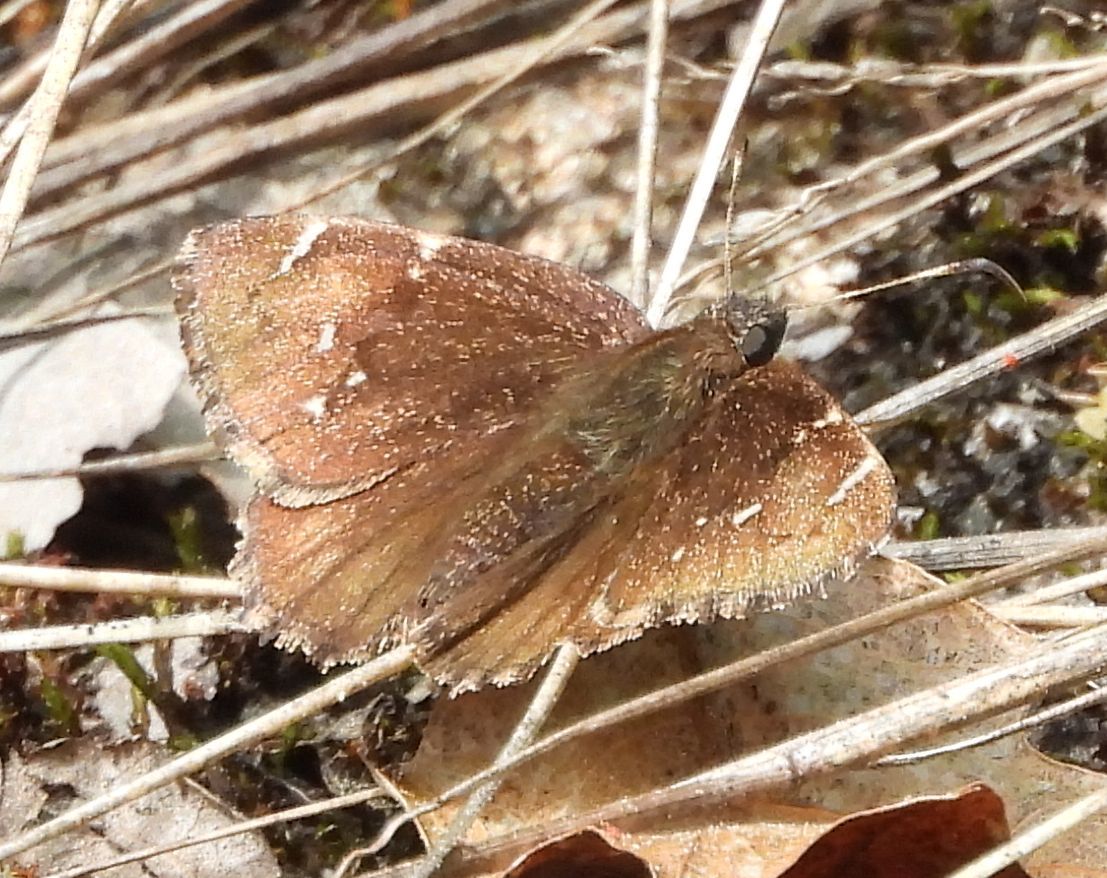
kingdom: Animalia
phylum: Arthropoda
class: Insecta
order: Lepidoptera
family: Hesperiidae
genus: Thorybes
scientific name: Thorybes pylades
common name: Northern cloudywing
